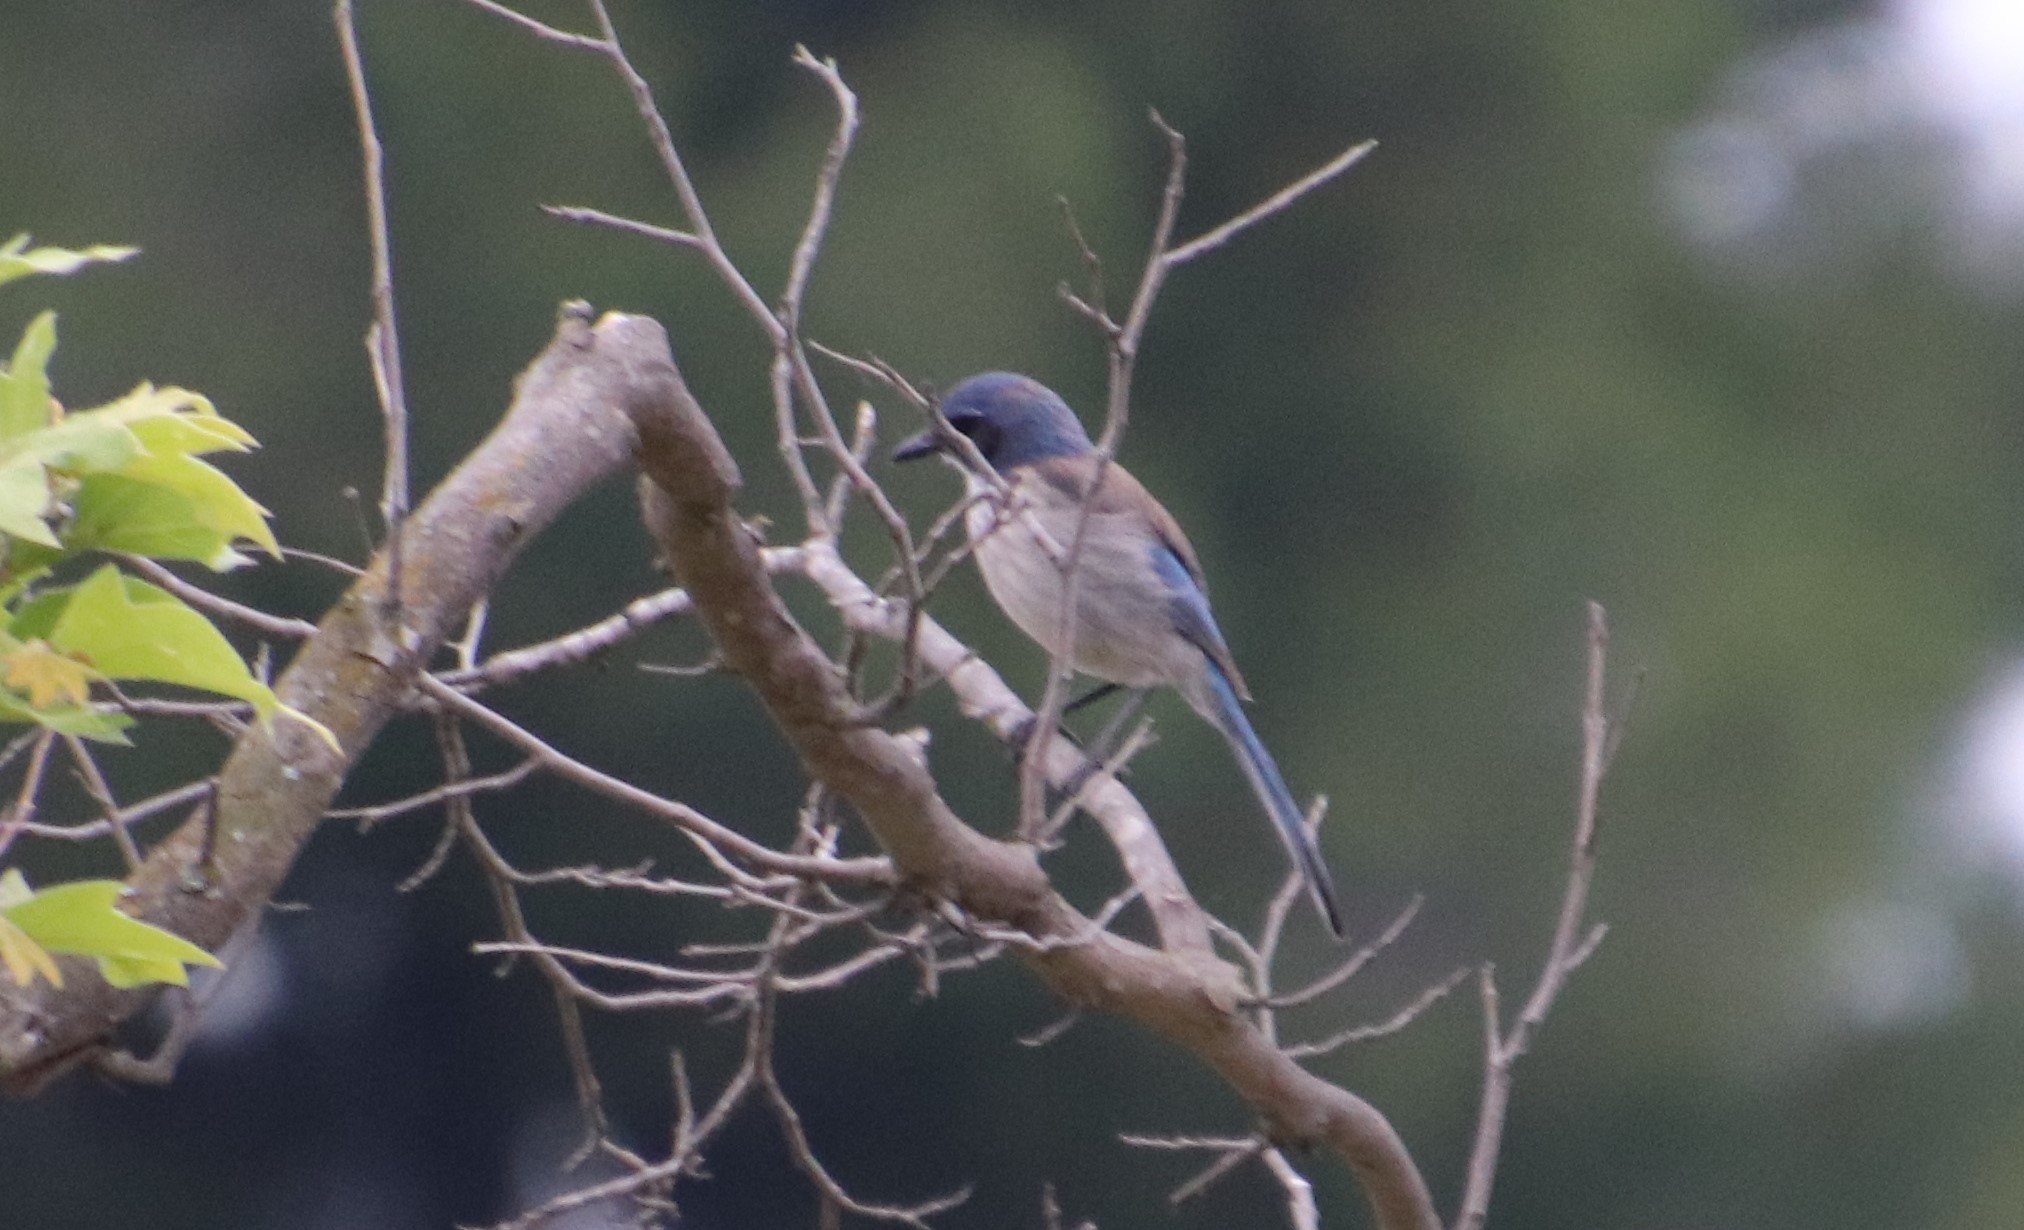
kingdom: Animalia
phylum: Chordata
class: Aves
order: Passeriformes
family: Corvidae
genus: Aphelocoma
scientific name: Aphelocoma californica
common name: California scrub-jay
